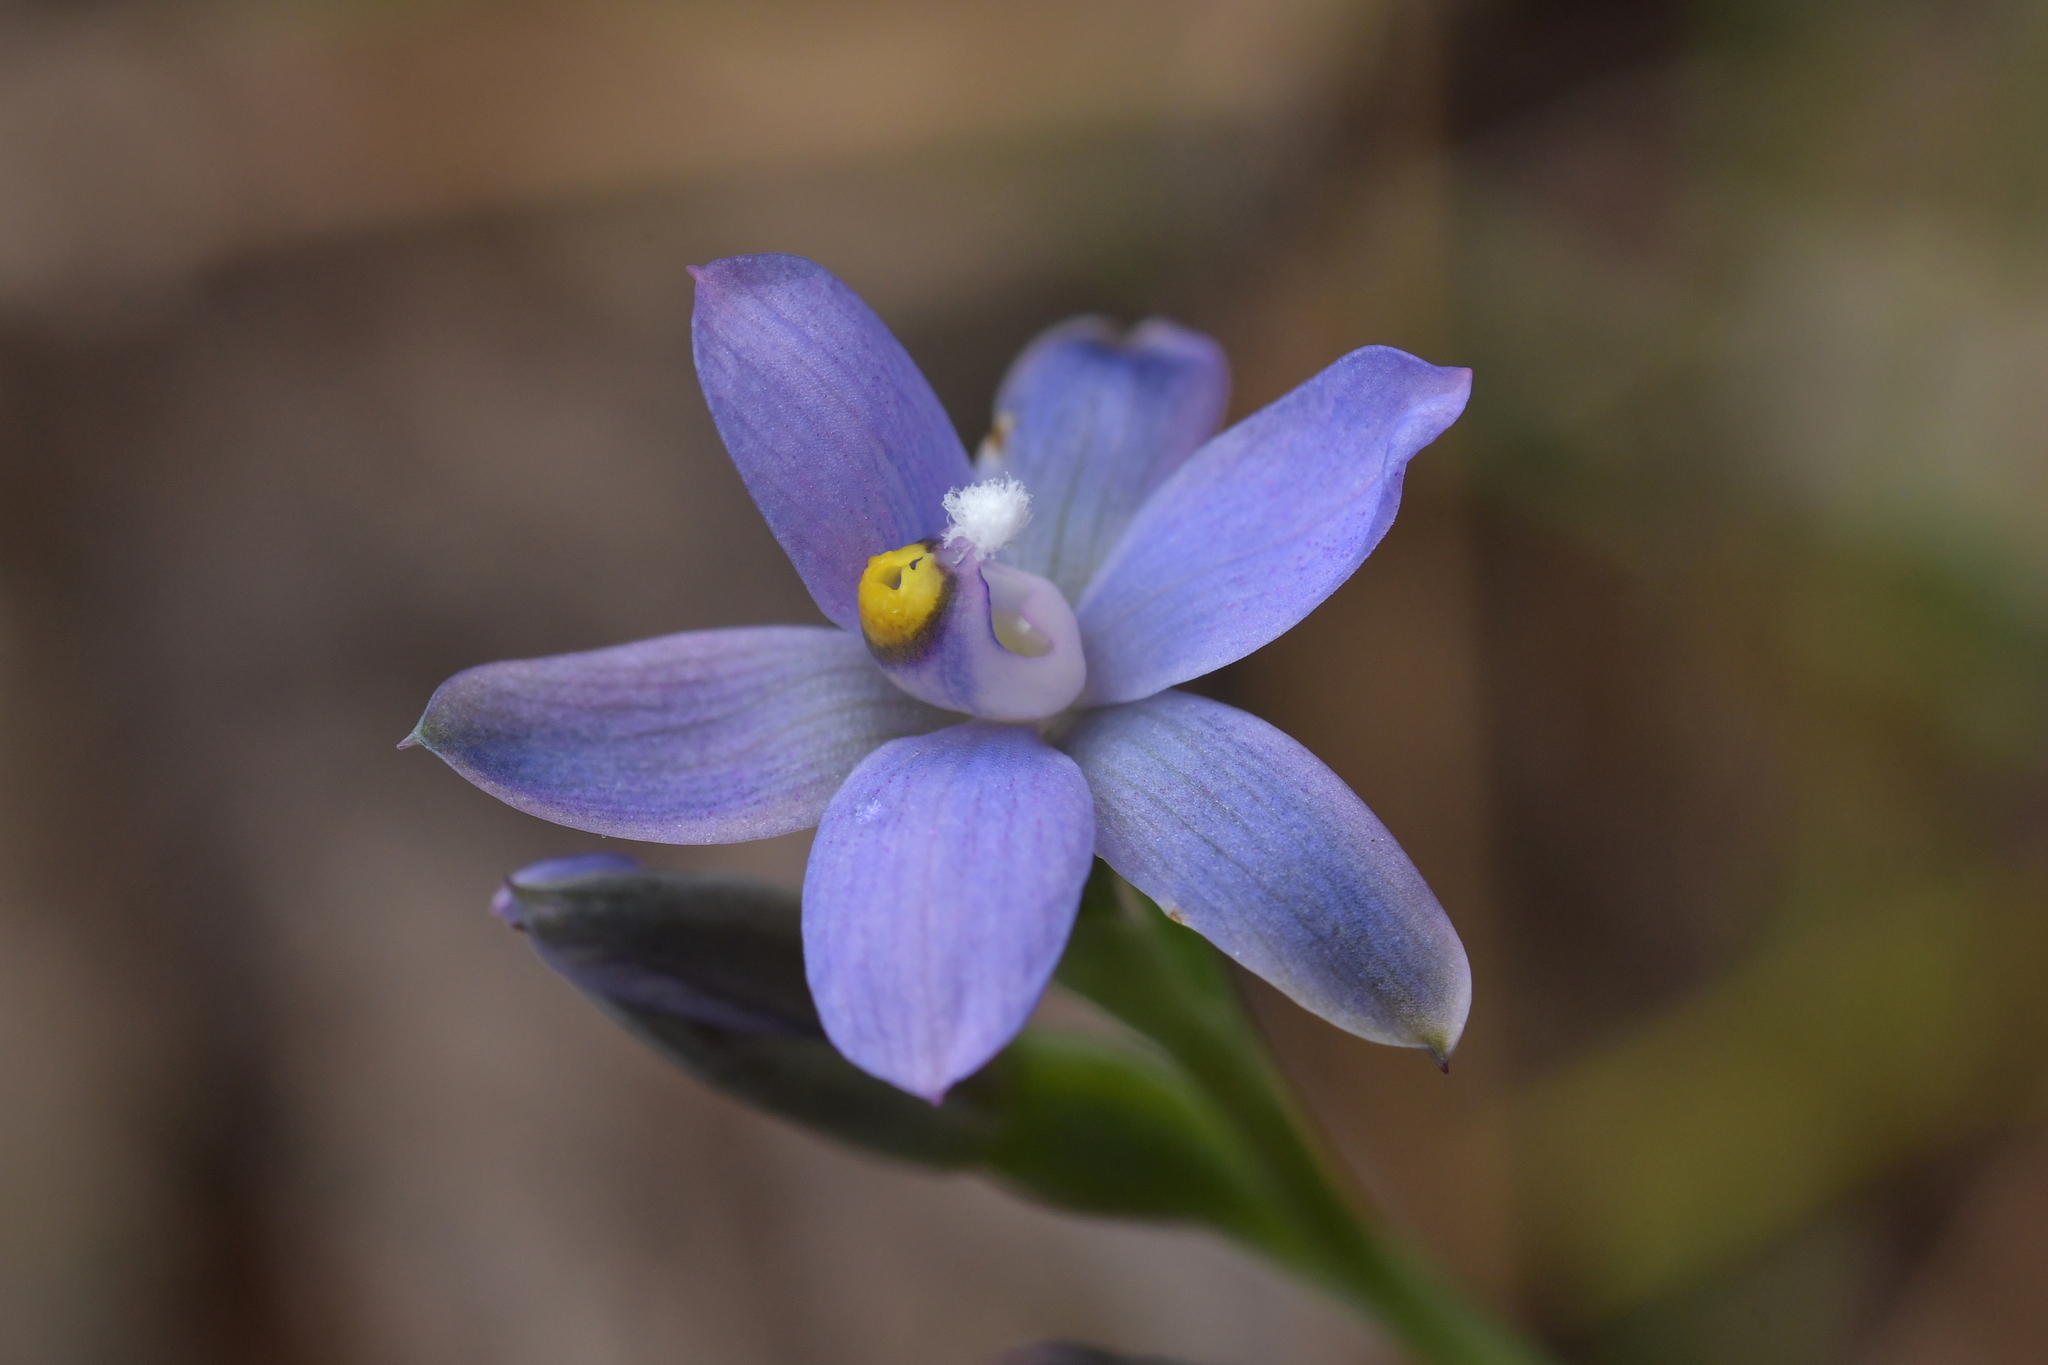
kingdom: Plantae
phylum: Tracheophyta
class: Liliopsida
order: Asparagales
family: Orchidaceae
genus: Thelymitra
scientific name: Thelymitra tholiformis
